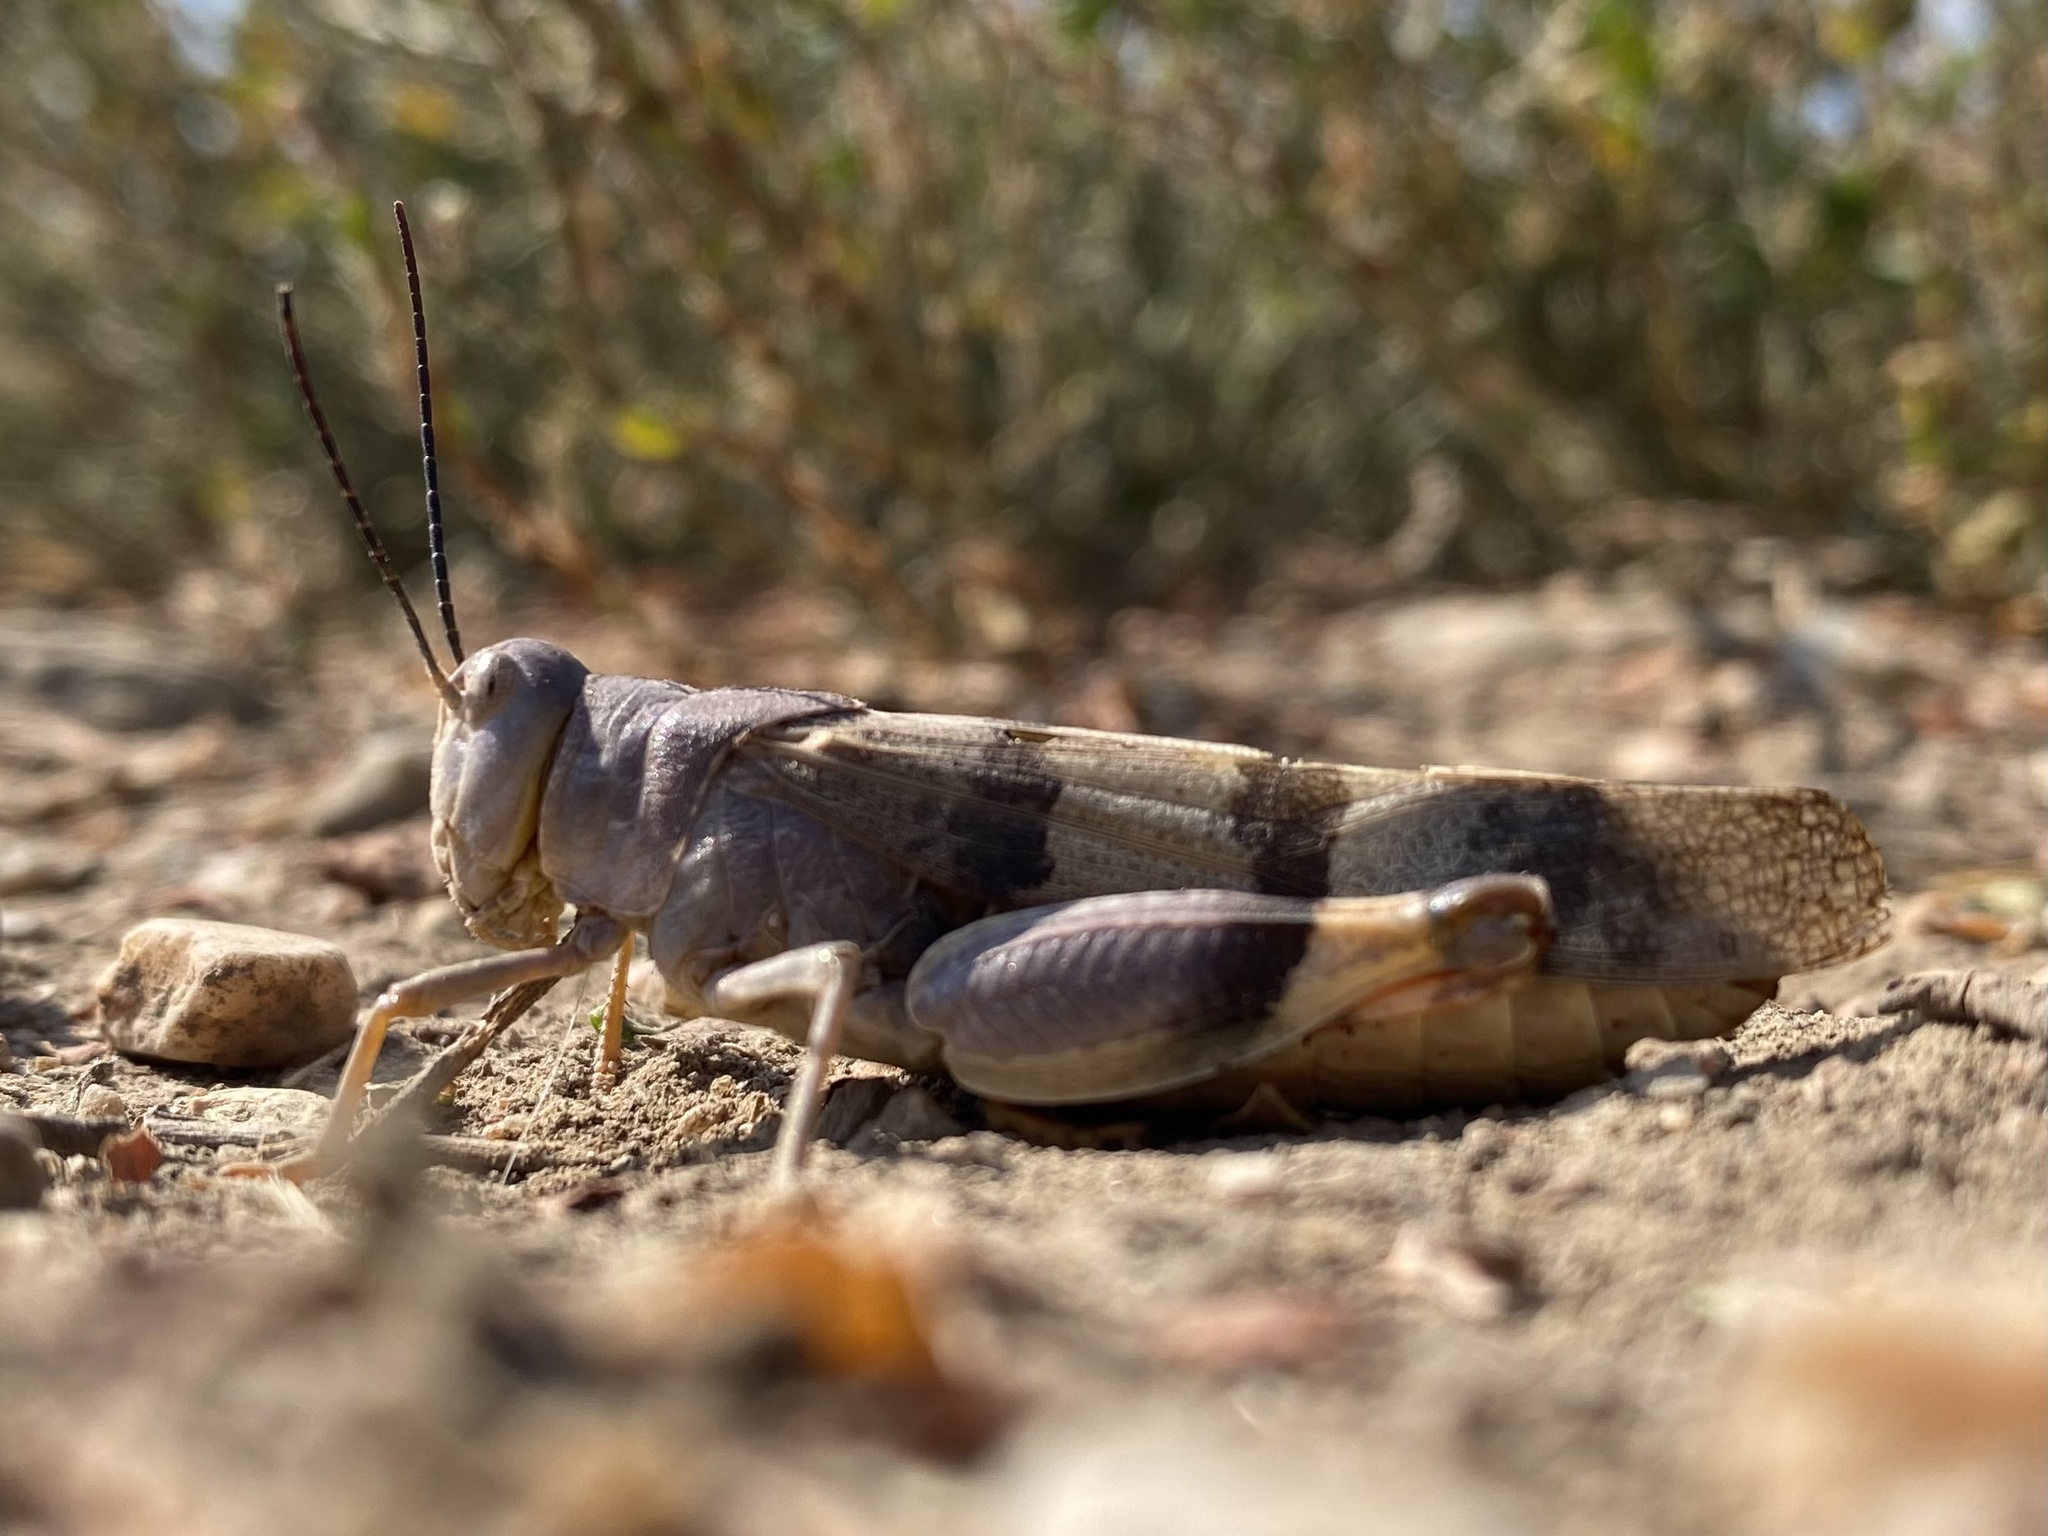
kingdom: Animalia
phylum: Arthropoda
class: Insecta
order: Orthoptera
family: Acrididae
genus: Hadrotettix
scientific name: Hadrotettix trifasciatus
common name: Threebanded grasshopper
